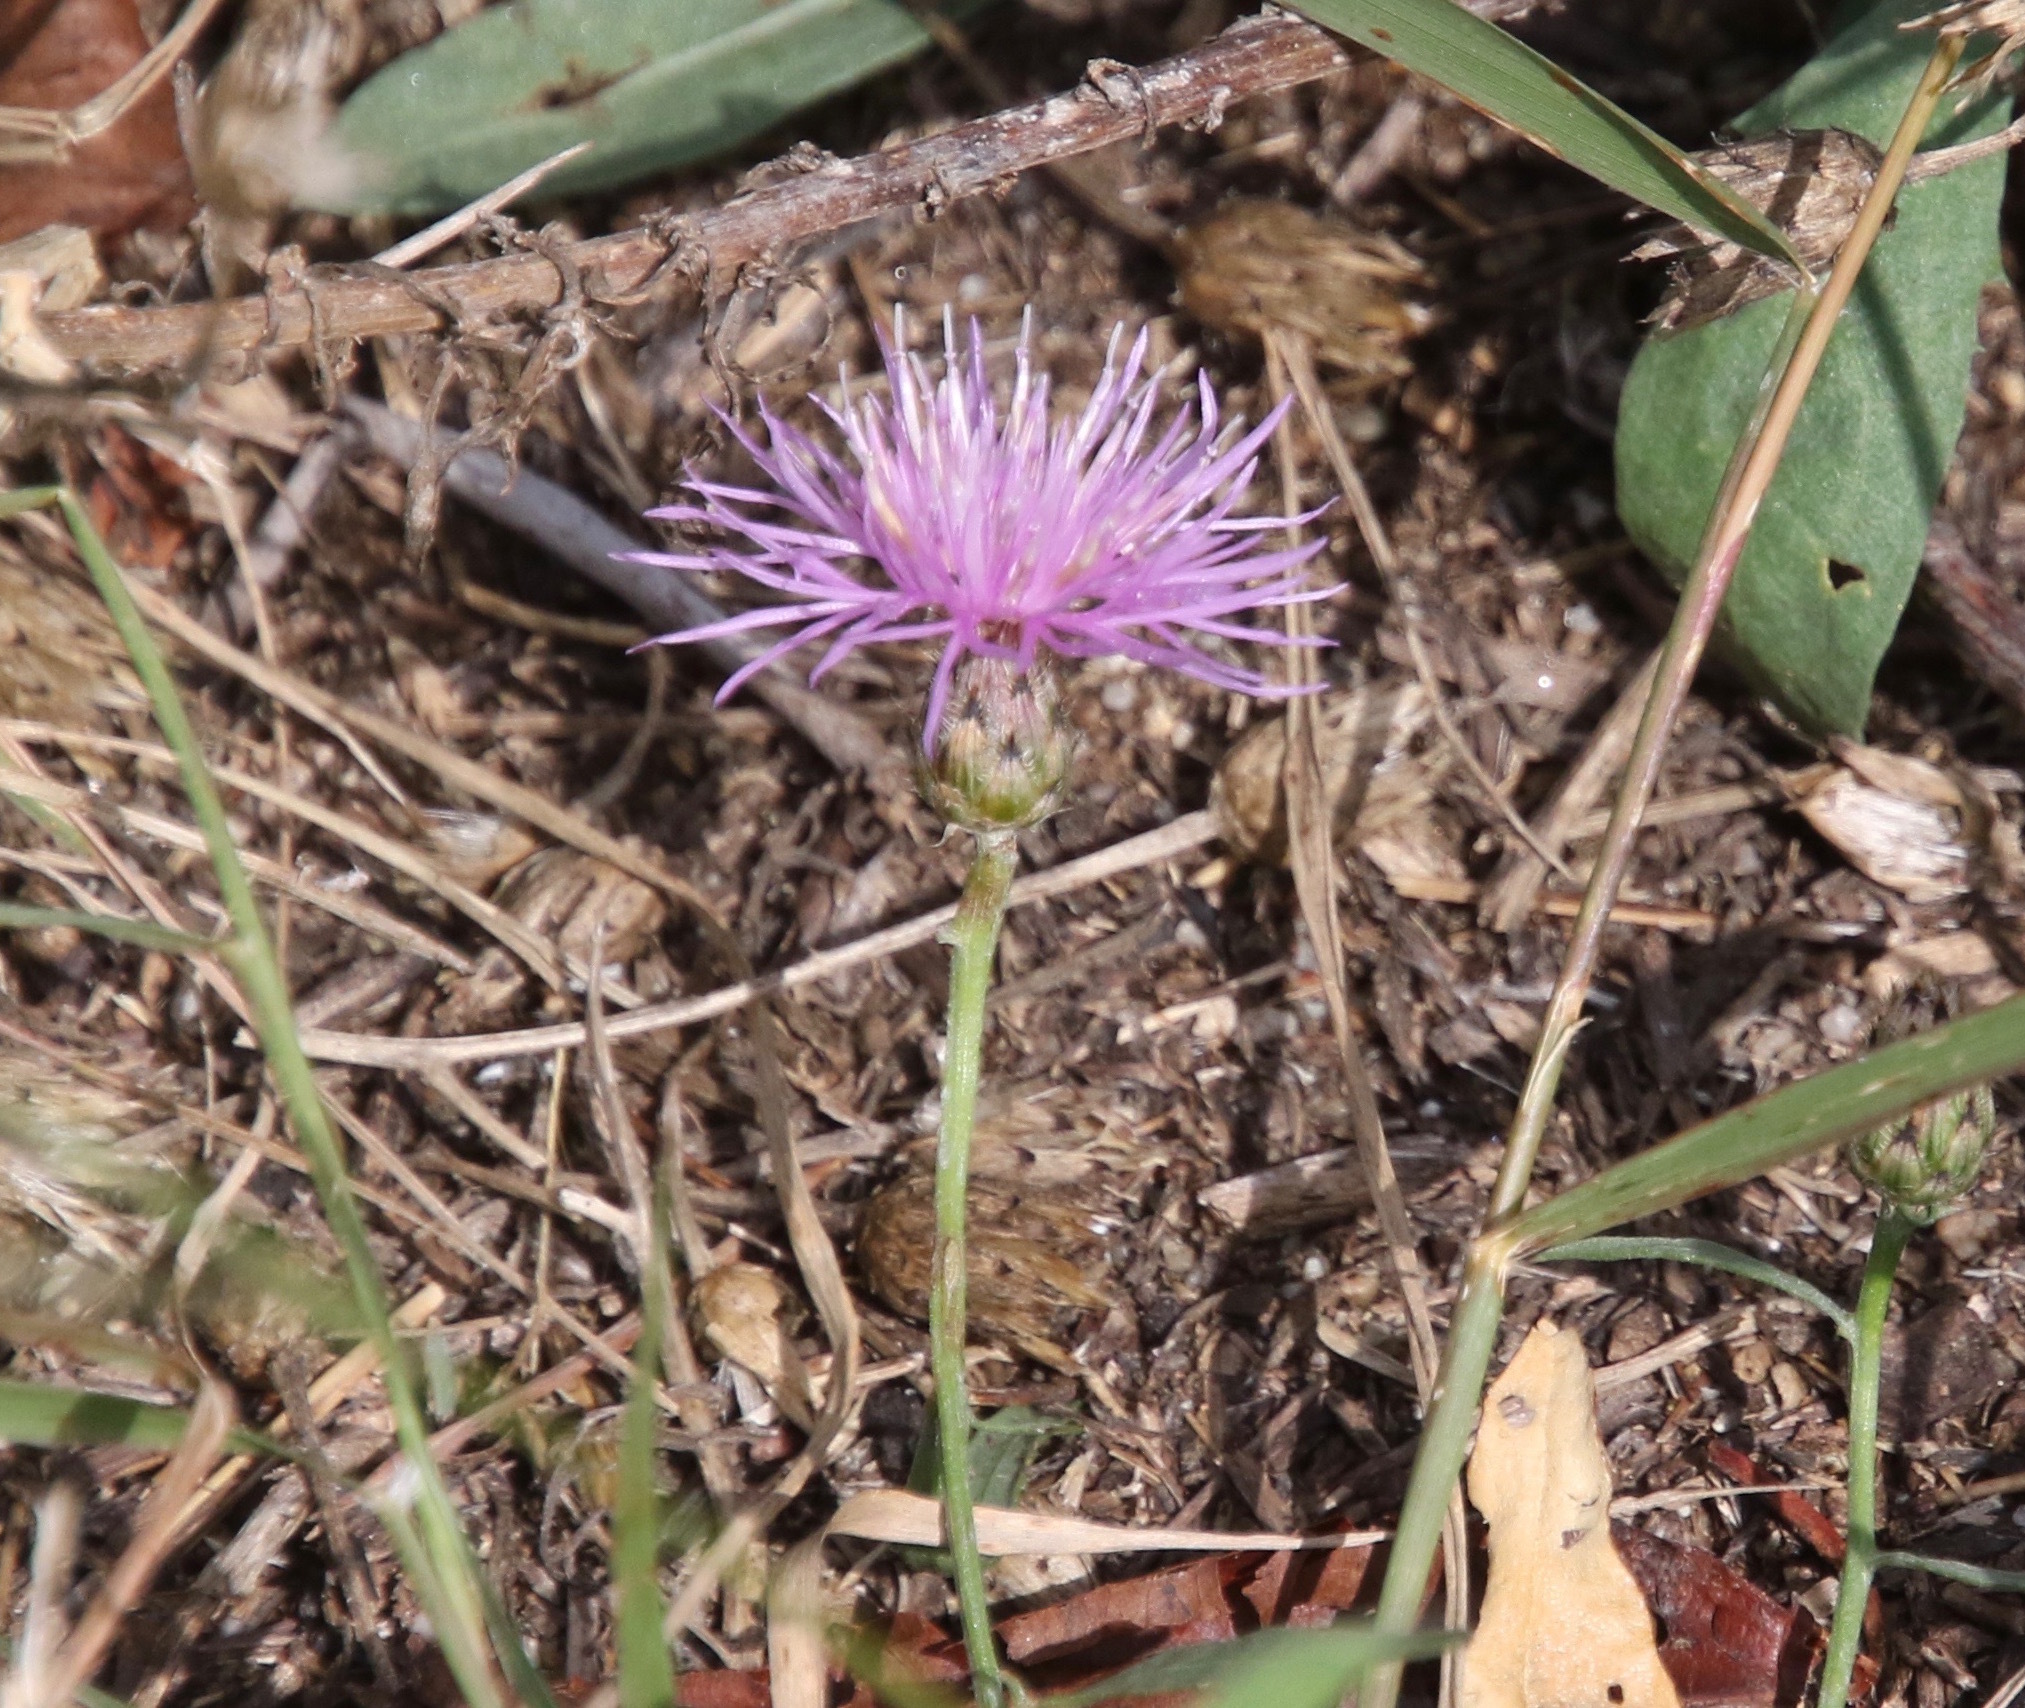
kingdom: Plantae
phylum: Tracheophyta
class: Magnoliopsida
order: Asterales
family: Asteraceae
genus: Centaurea
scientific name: Centaurea stoebe
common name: Spotted knapweed
